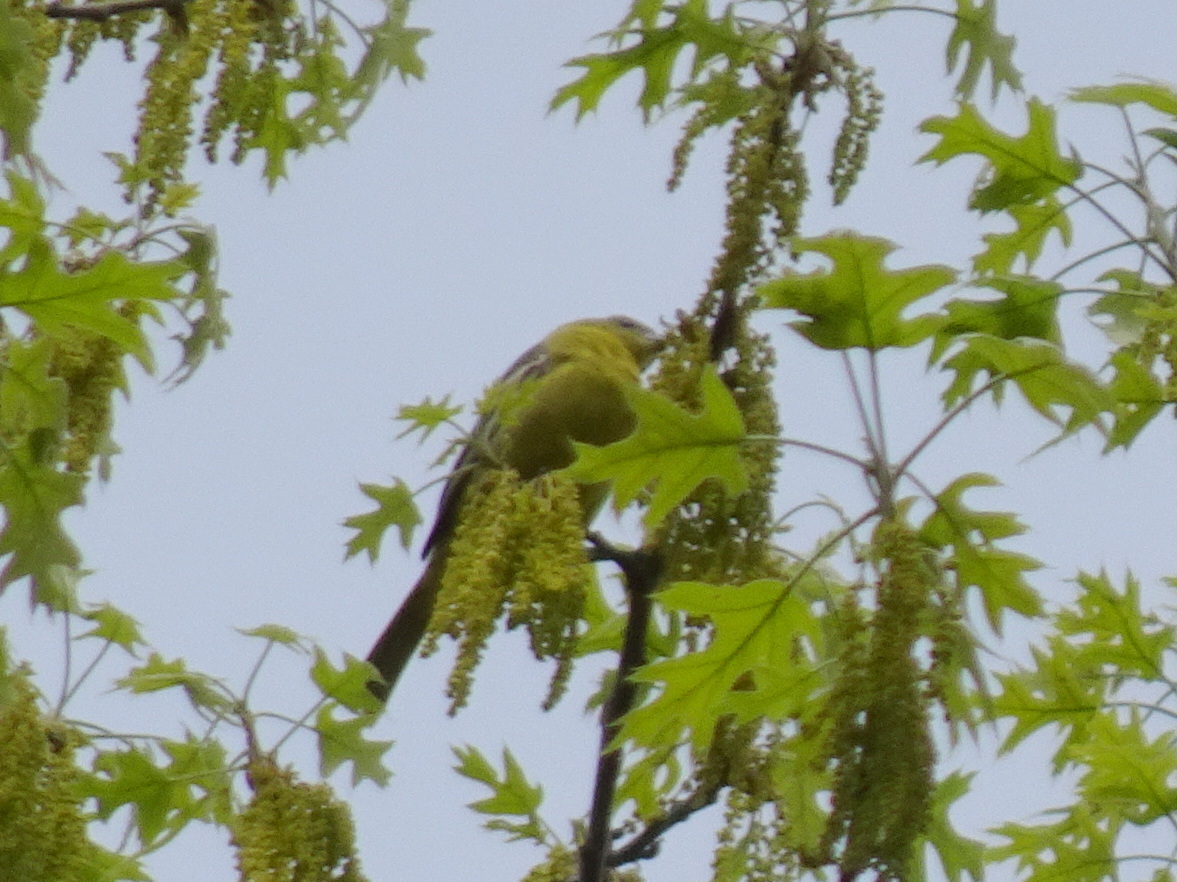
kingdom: Animalia
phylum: Chordata
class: Aves
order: Passeriformes
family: Icteridae
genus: Icterus
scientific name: Icterus spurius
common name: Orchard oriole
